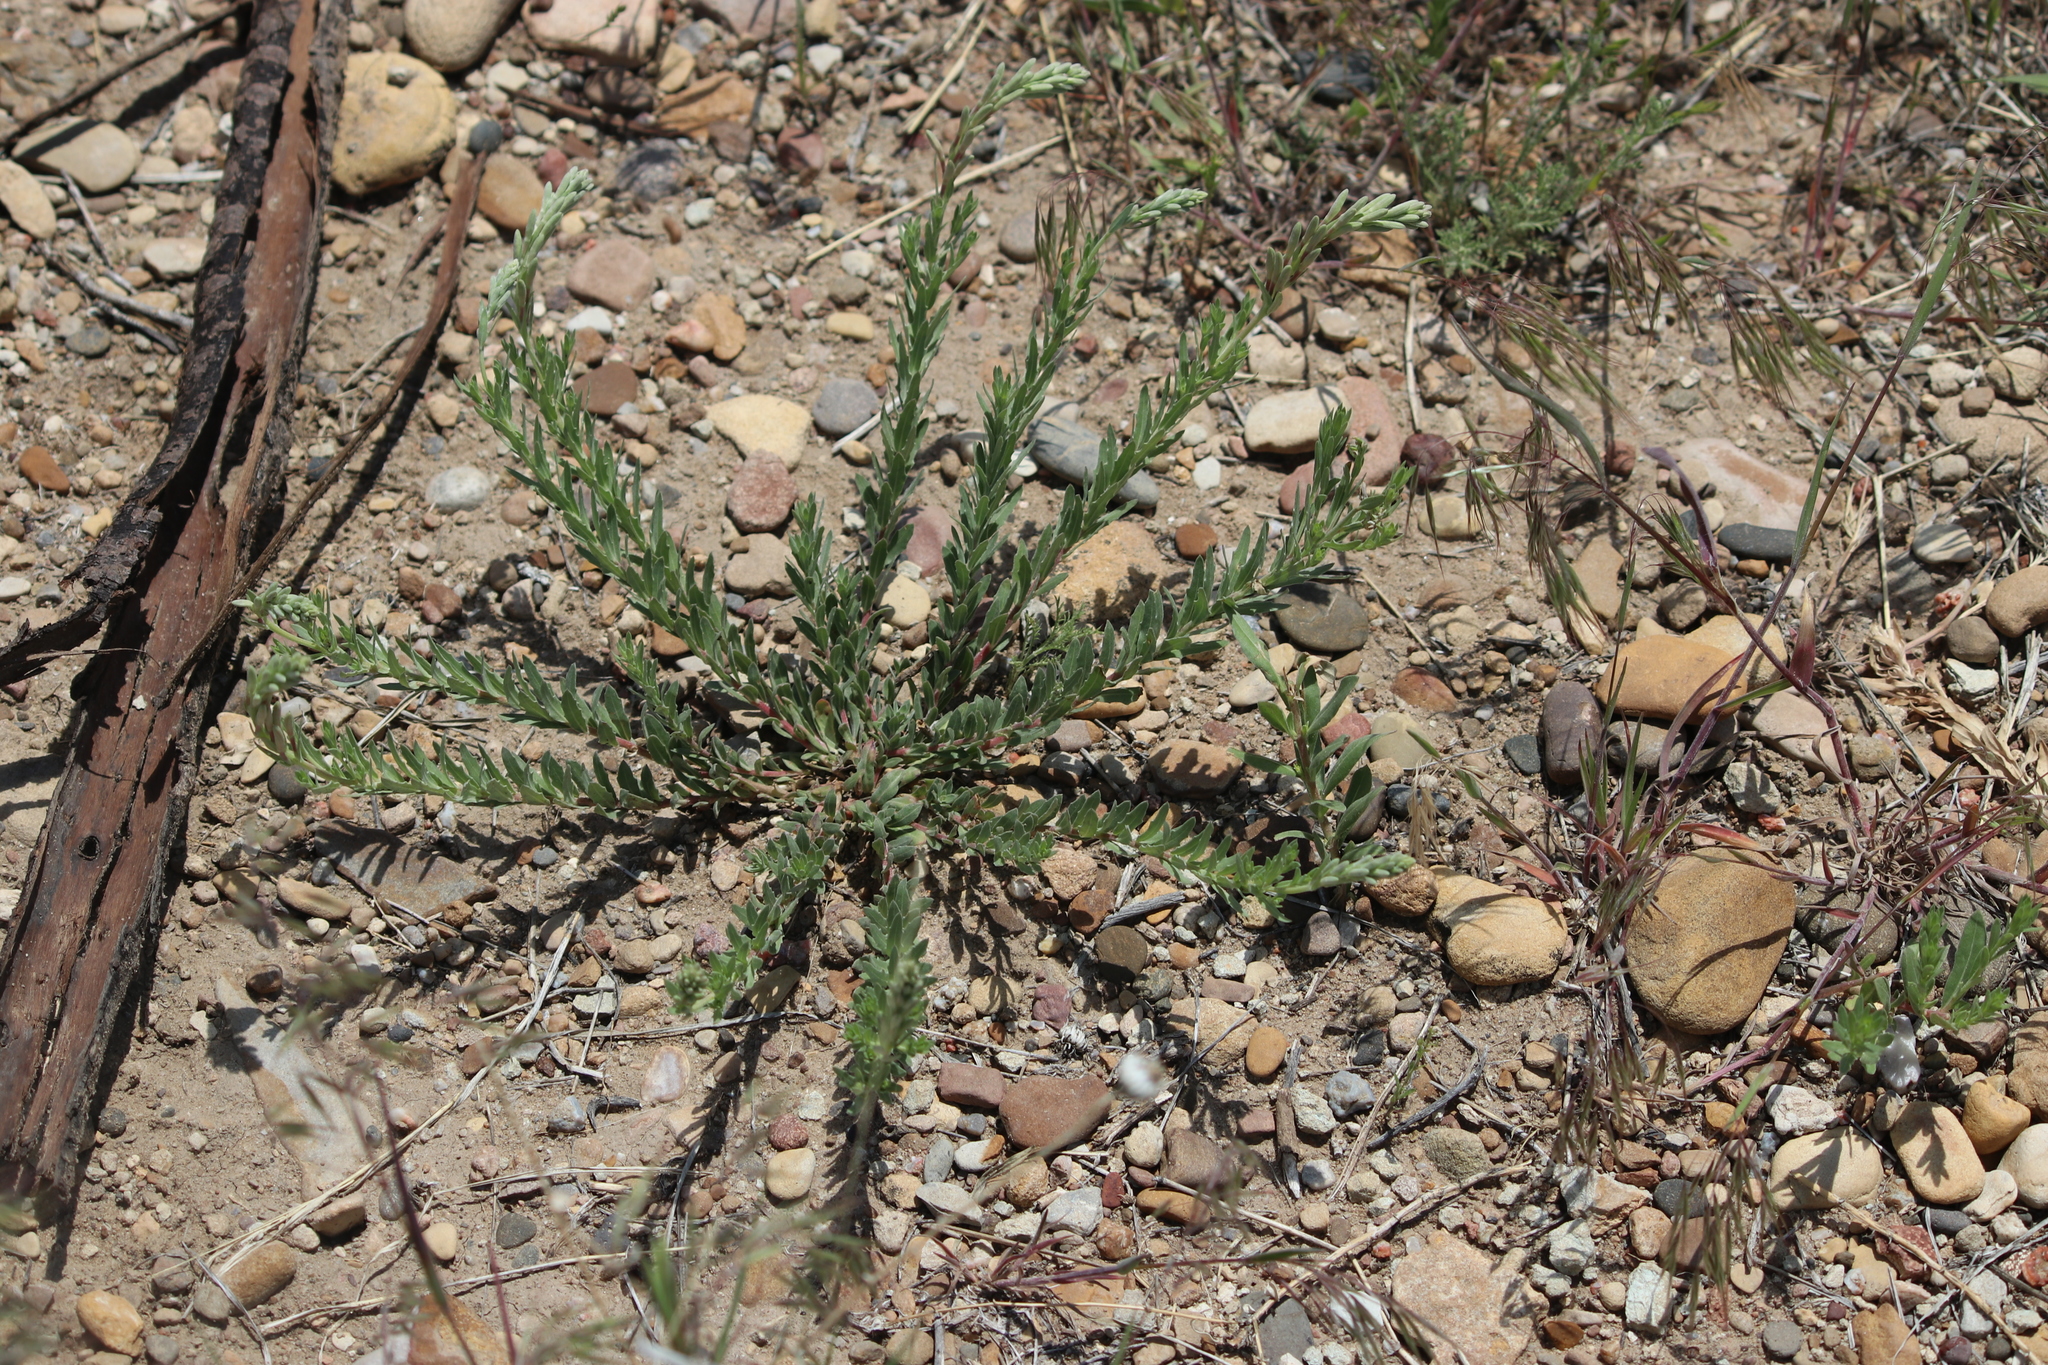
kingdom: Plantae
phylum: Tracheophyta
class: Magnoliopsida
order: Myrtales
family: Onagraceae
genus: Oenothera
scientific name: Oenothera suffrutescens
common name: Scarlet beeblossom
